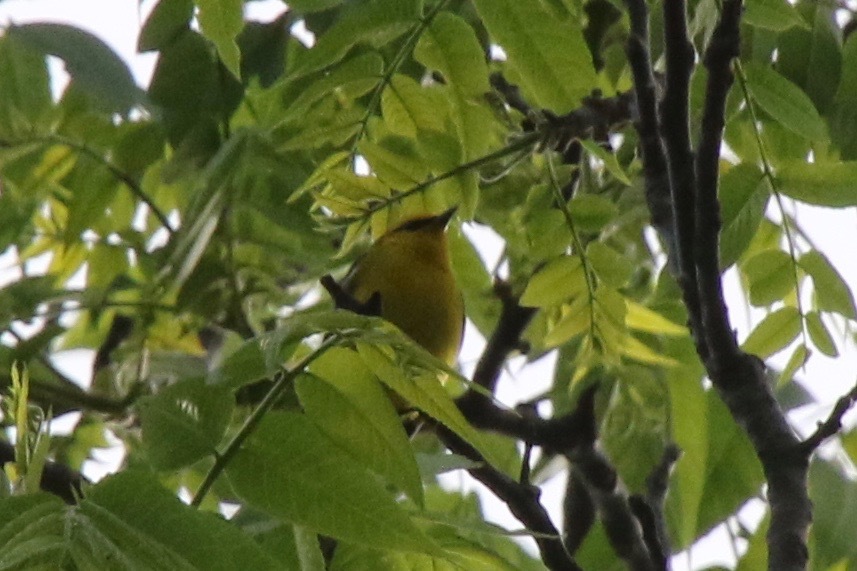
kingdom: Animalia
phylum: Chordata
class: Aves
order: Passeriformes
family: Parulidae
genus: Vermivora
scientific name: Vermivora cyanoptera
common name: Blue-winged warbler
